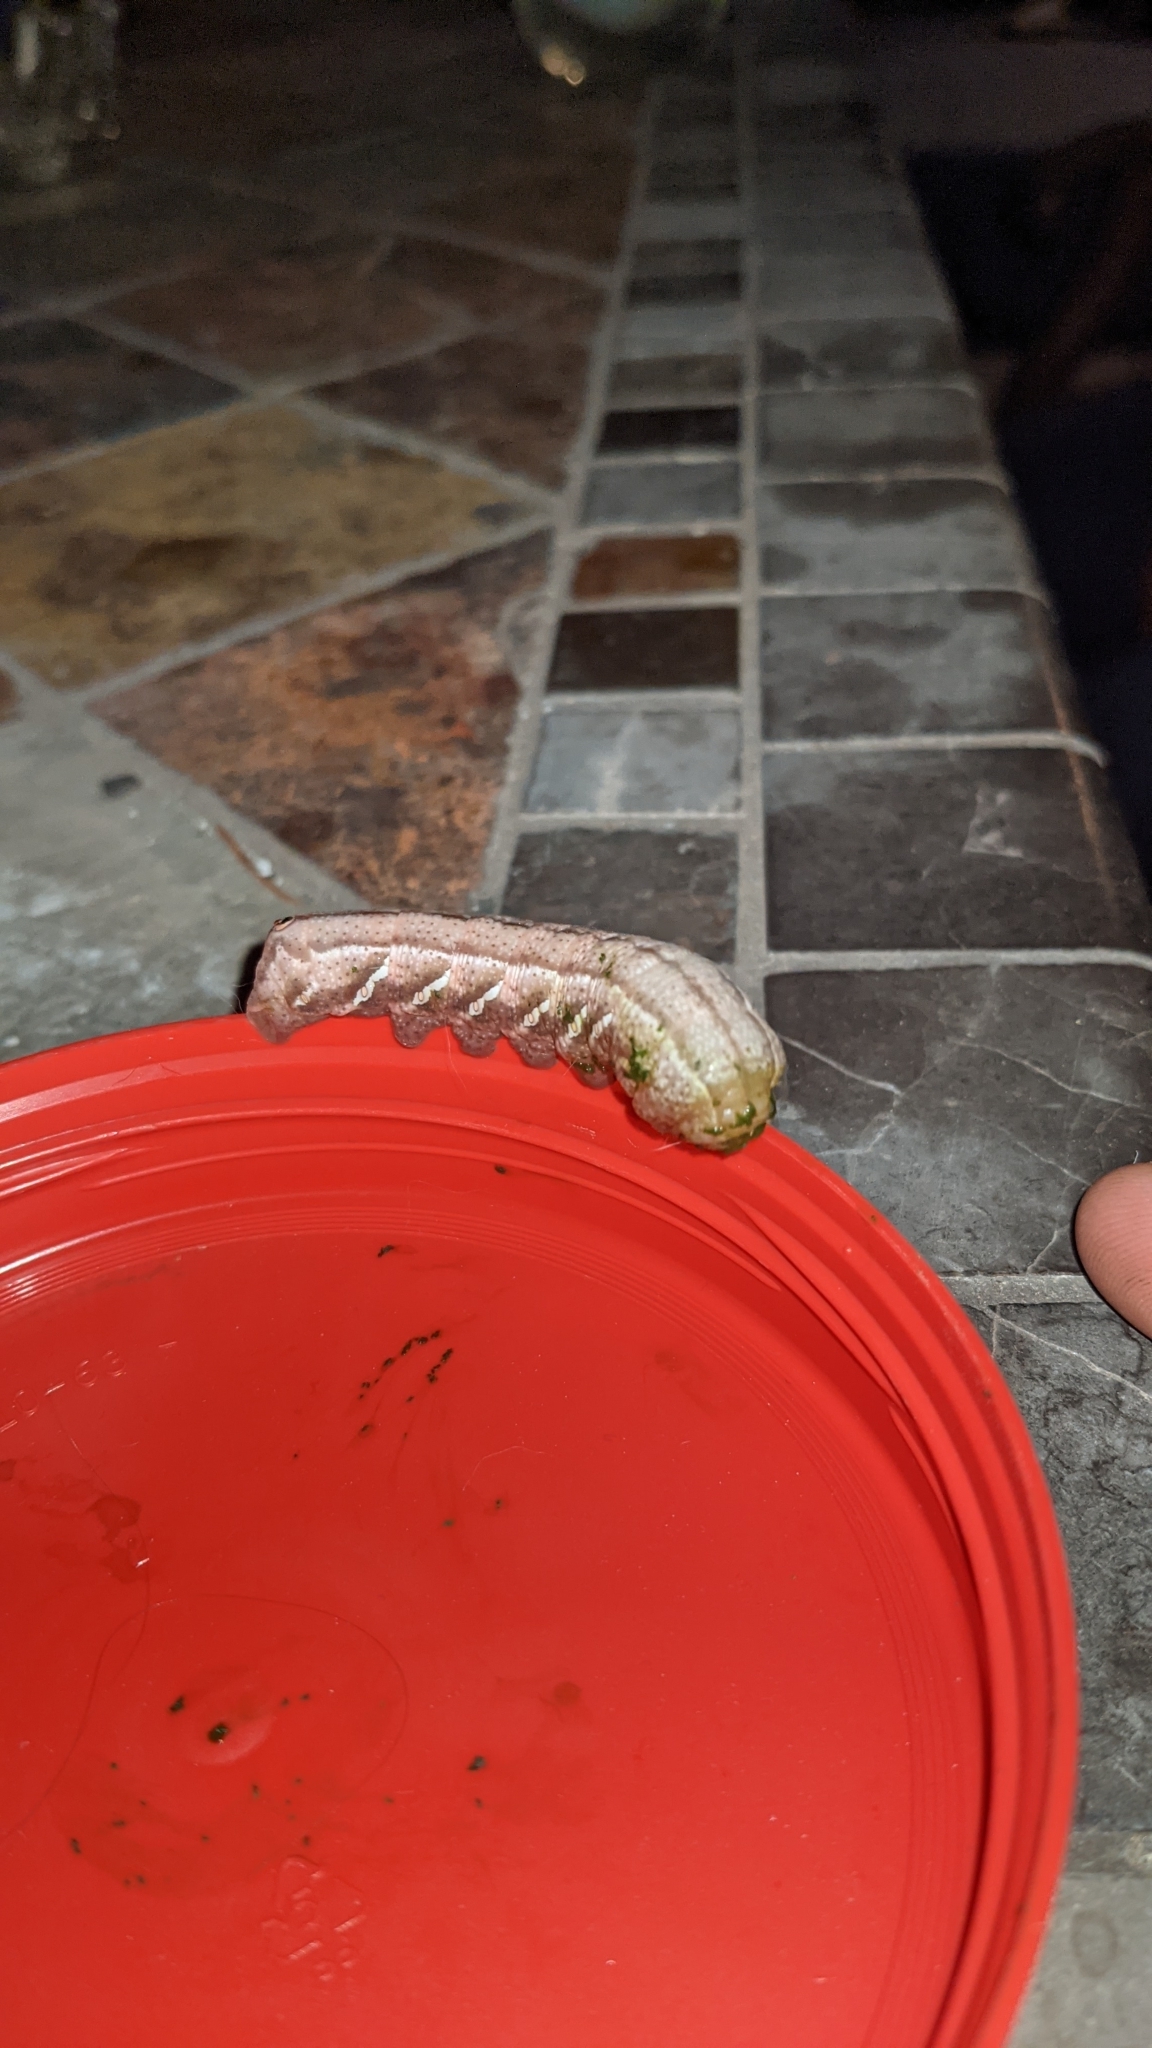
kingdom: Animalia
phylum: Arthropoda
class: Insecta
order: Lepidoptera
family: Sphingidae
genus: Eumorpha
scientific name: Eumorpha achemon
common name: Achemon sphinx
